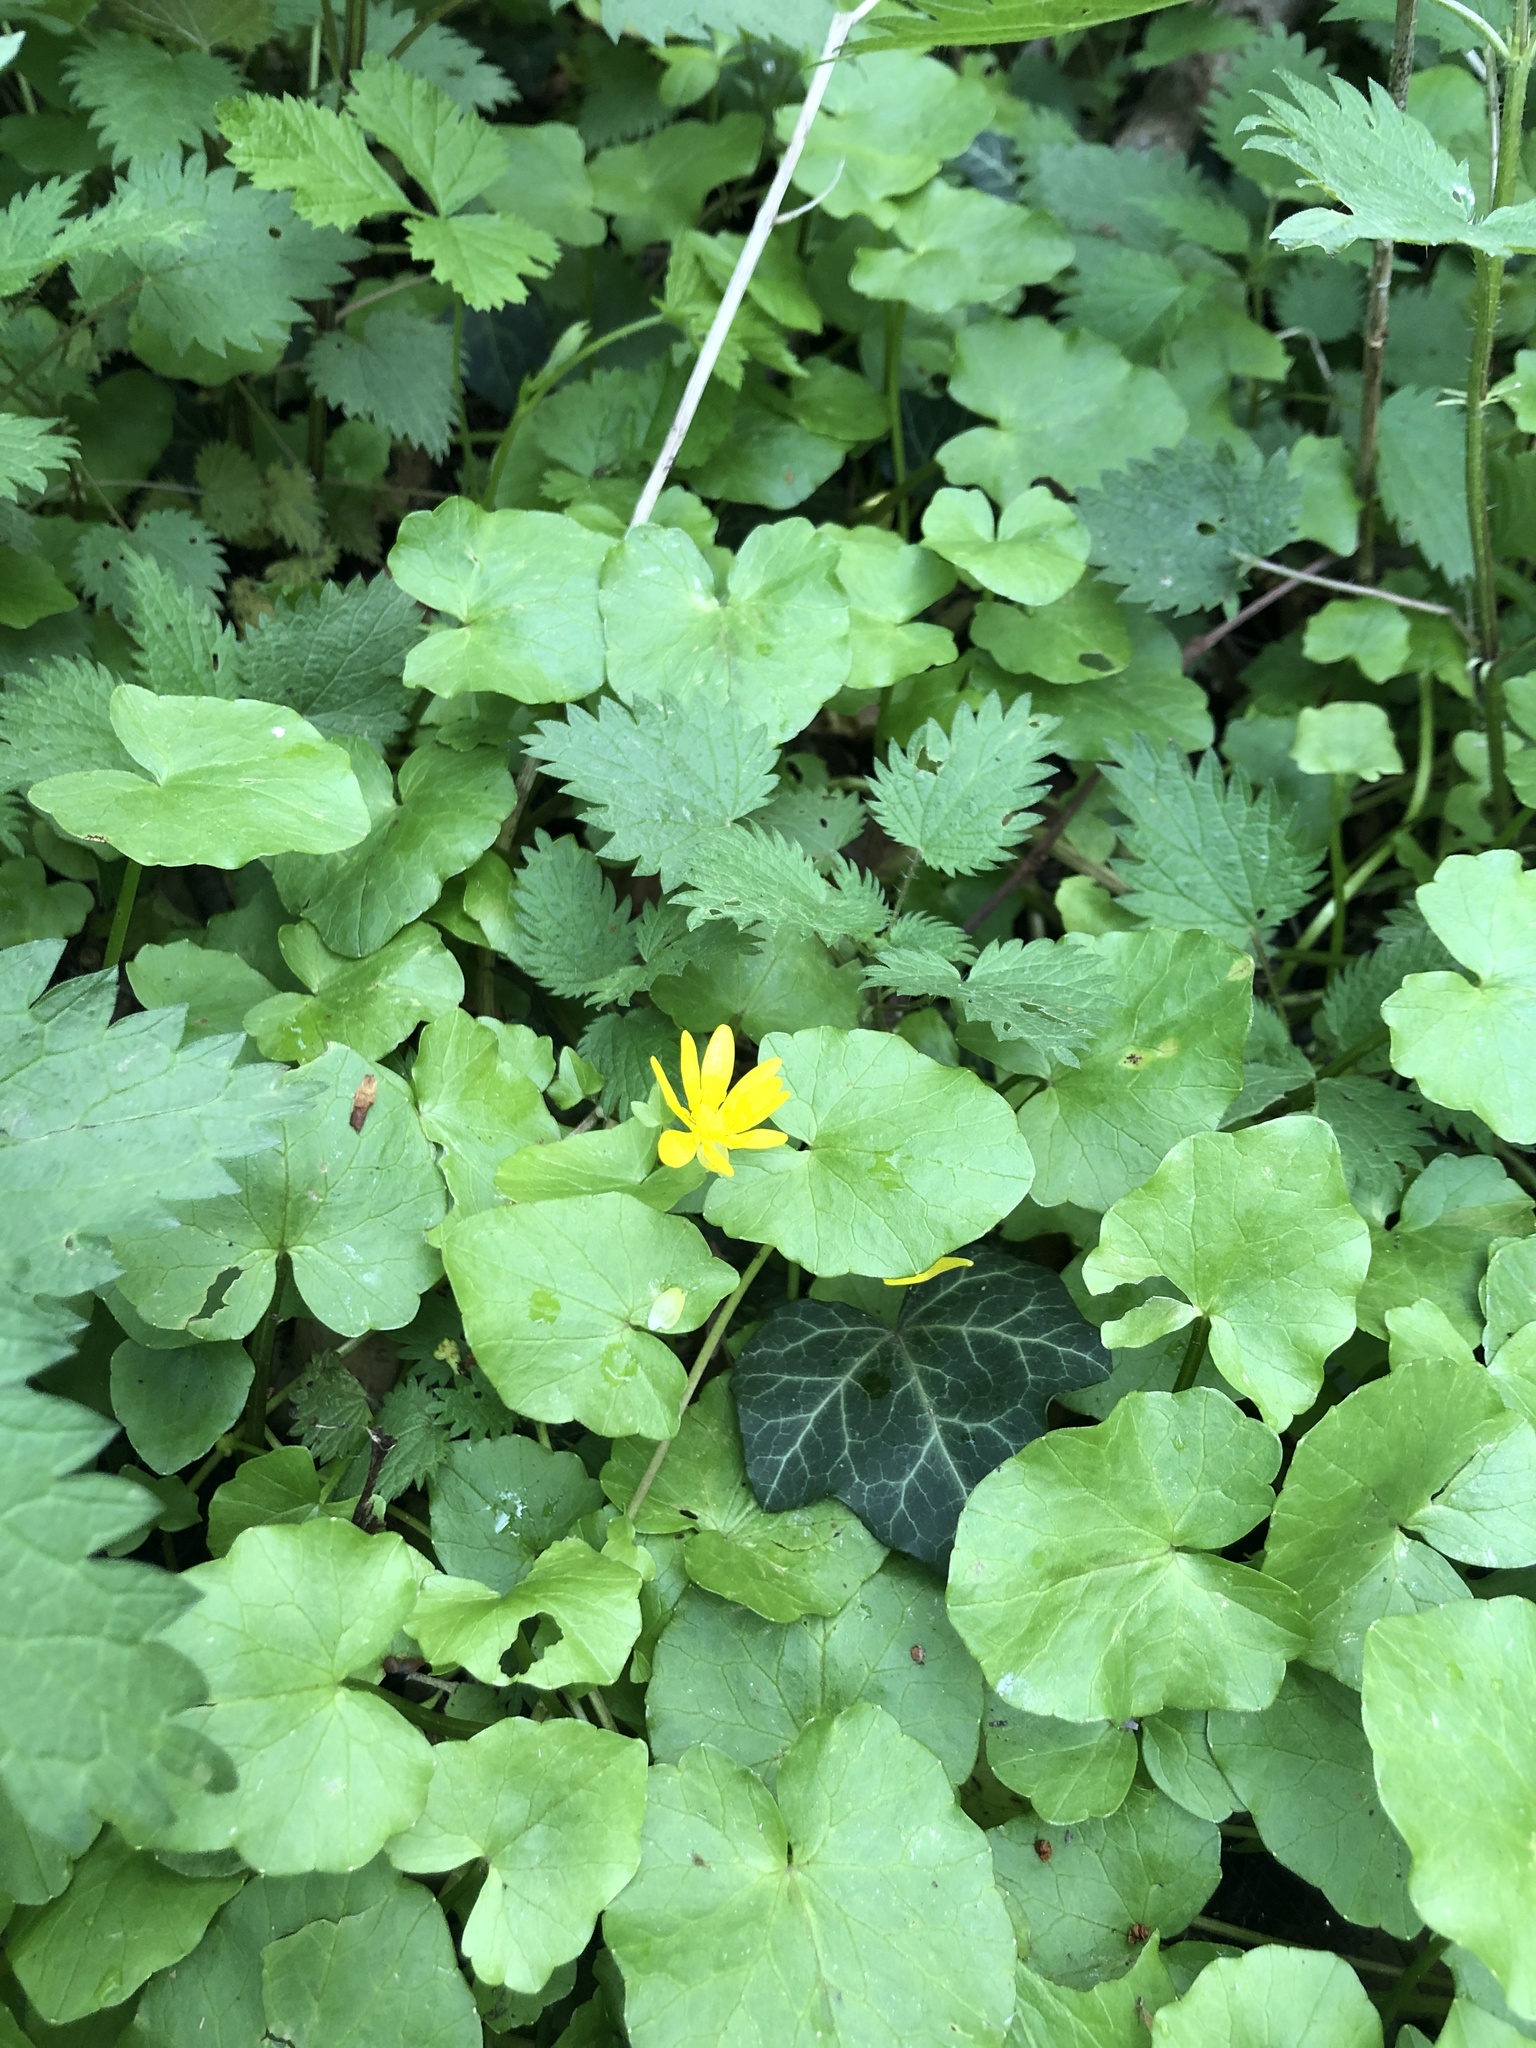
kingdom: Plantae
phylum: Tracheophyta
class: Magnoliopsida
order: Ranunculales
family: Ranunculaceae
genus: Ficaria
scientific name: Ficaria verna
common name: Lesser celandine
